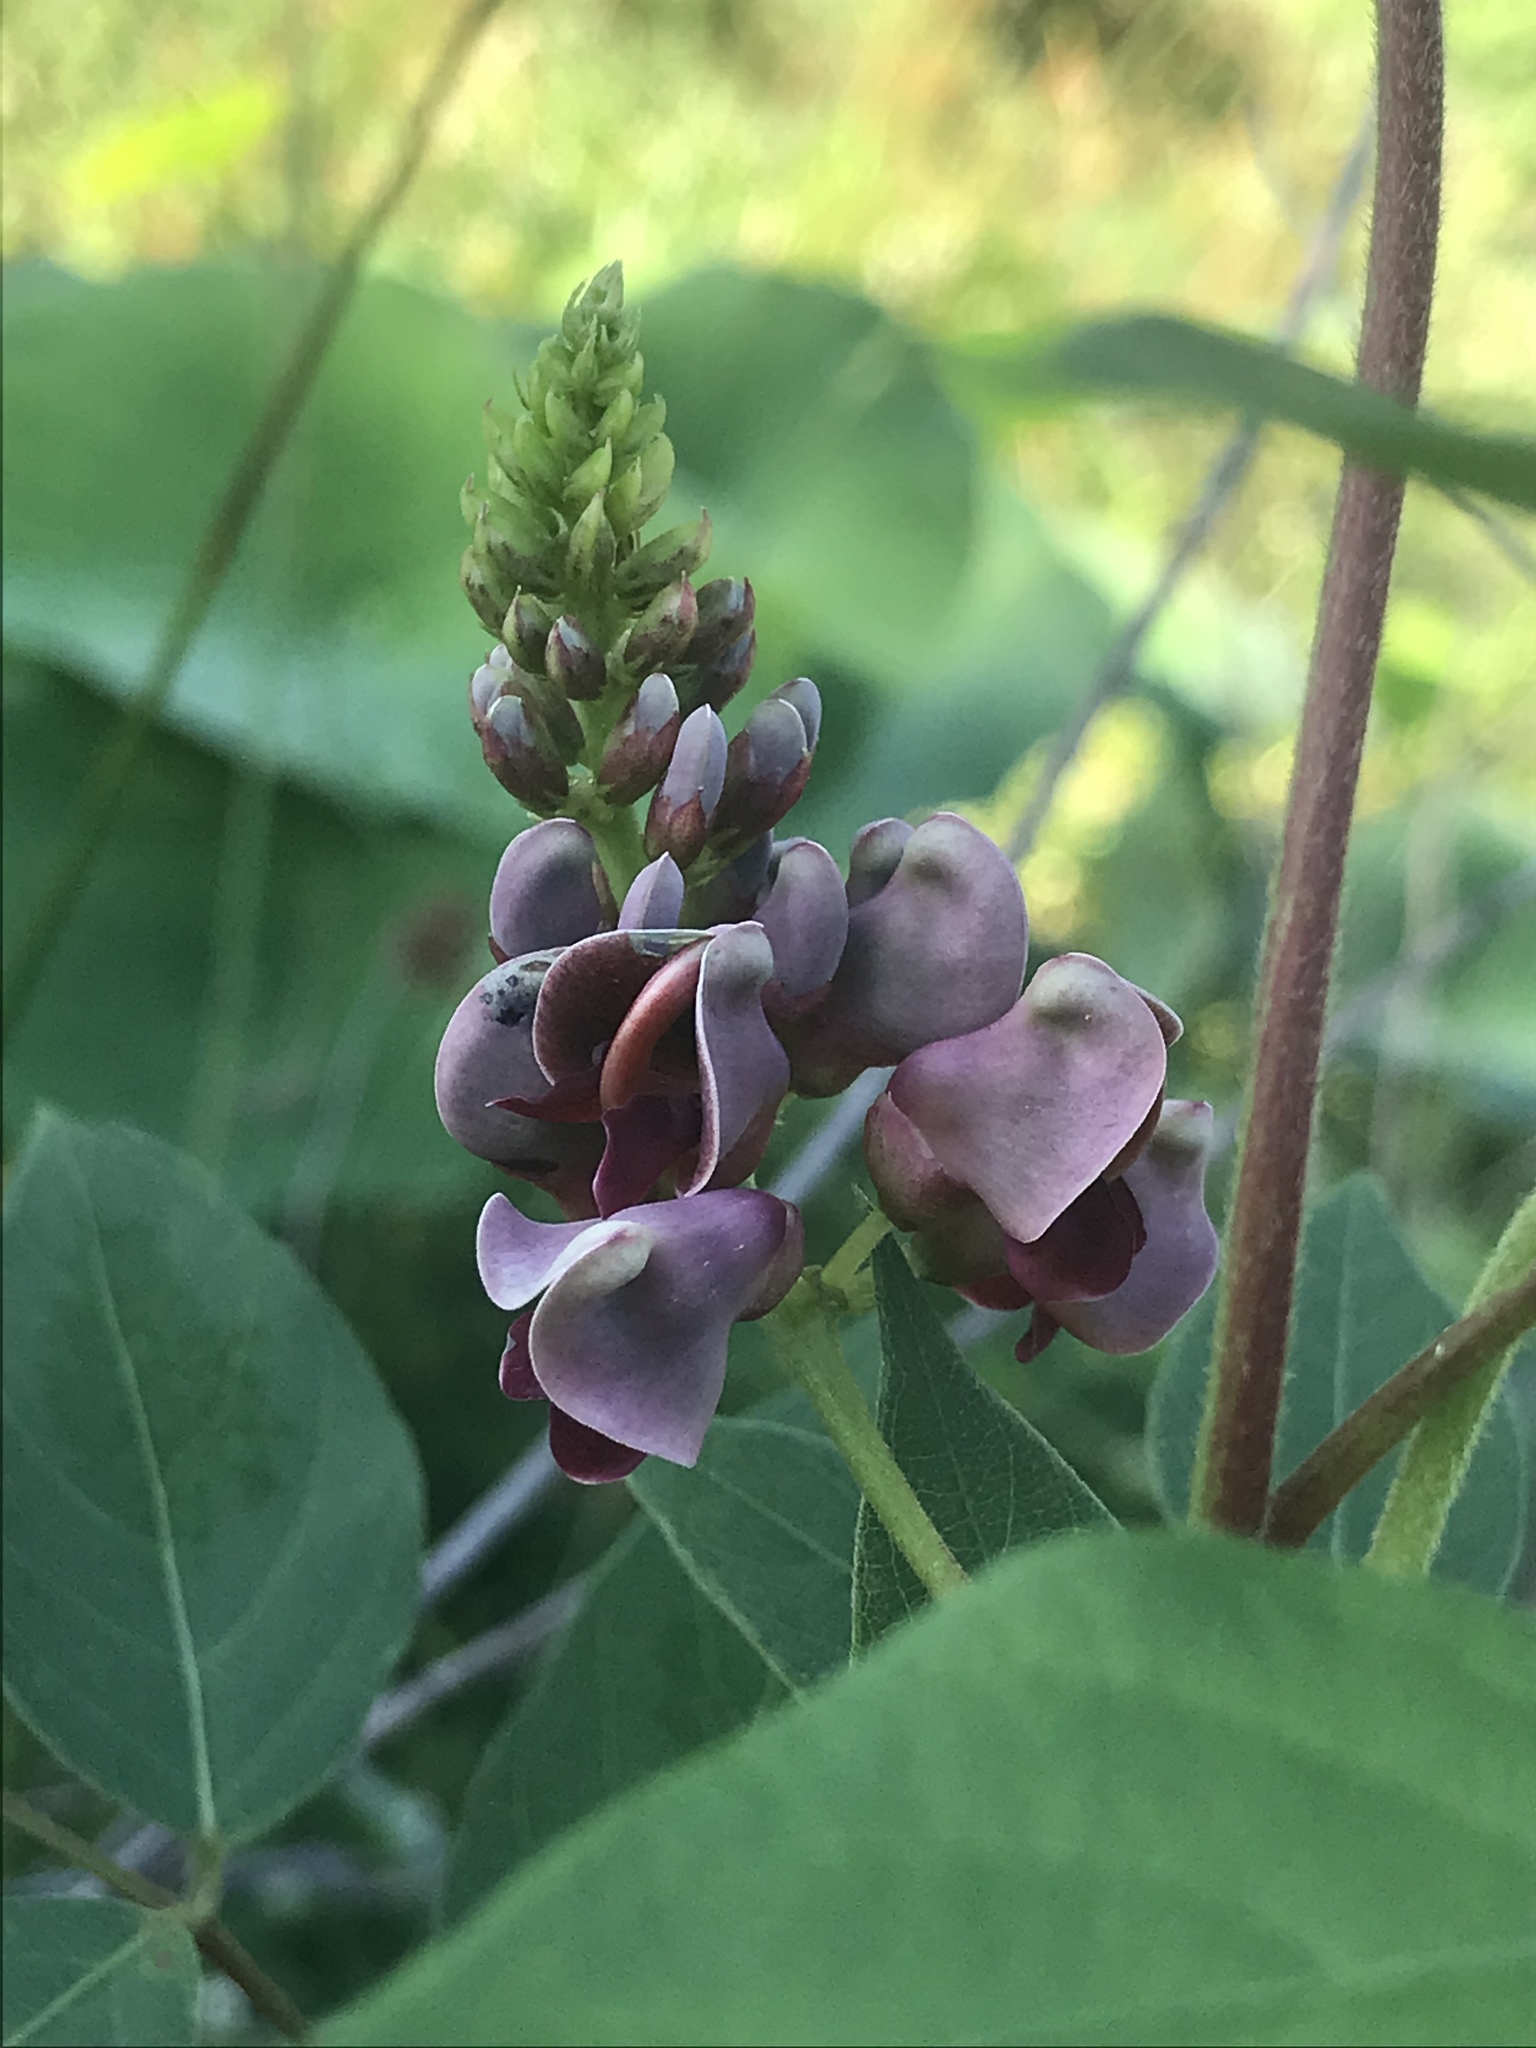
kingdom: Plantae
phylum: Tracheophyta
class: Magnoliopsida
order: Fabales
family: Fabaceae
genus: Apios
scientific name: Apios americana
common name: American potato-bean
